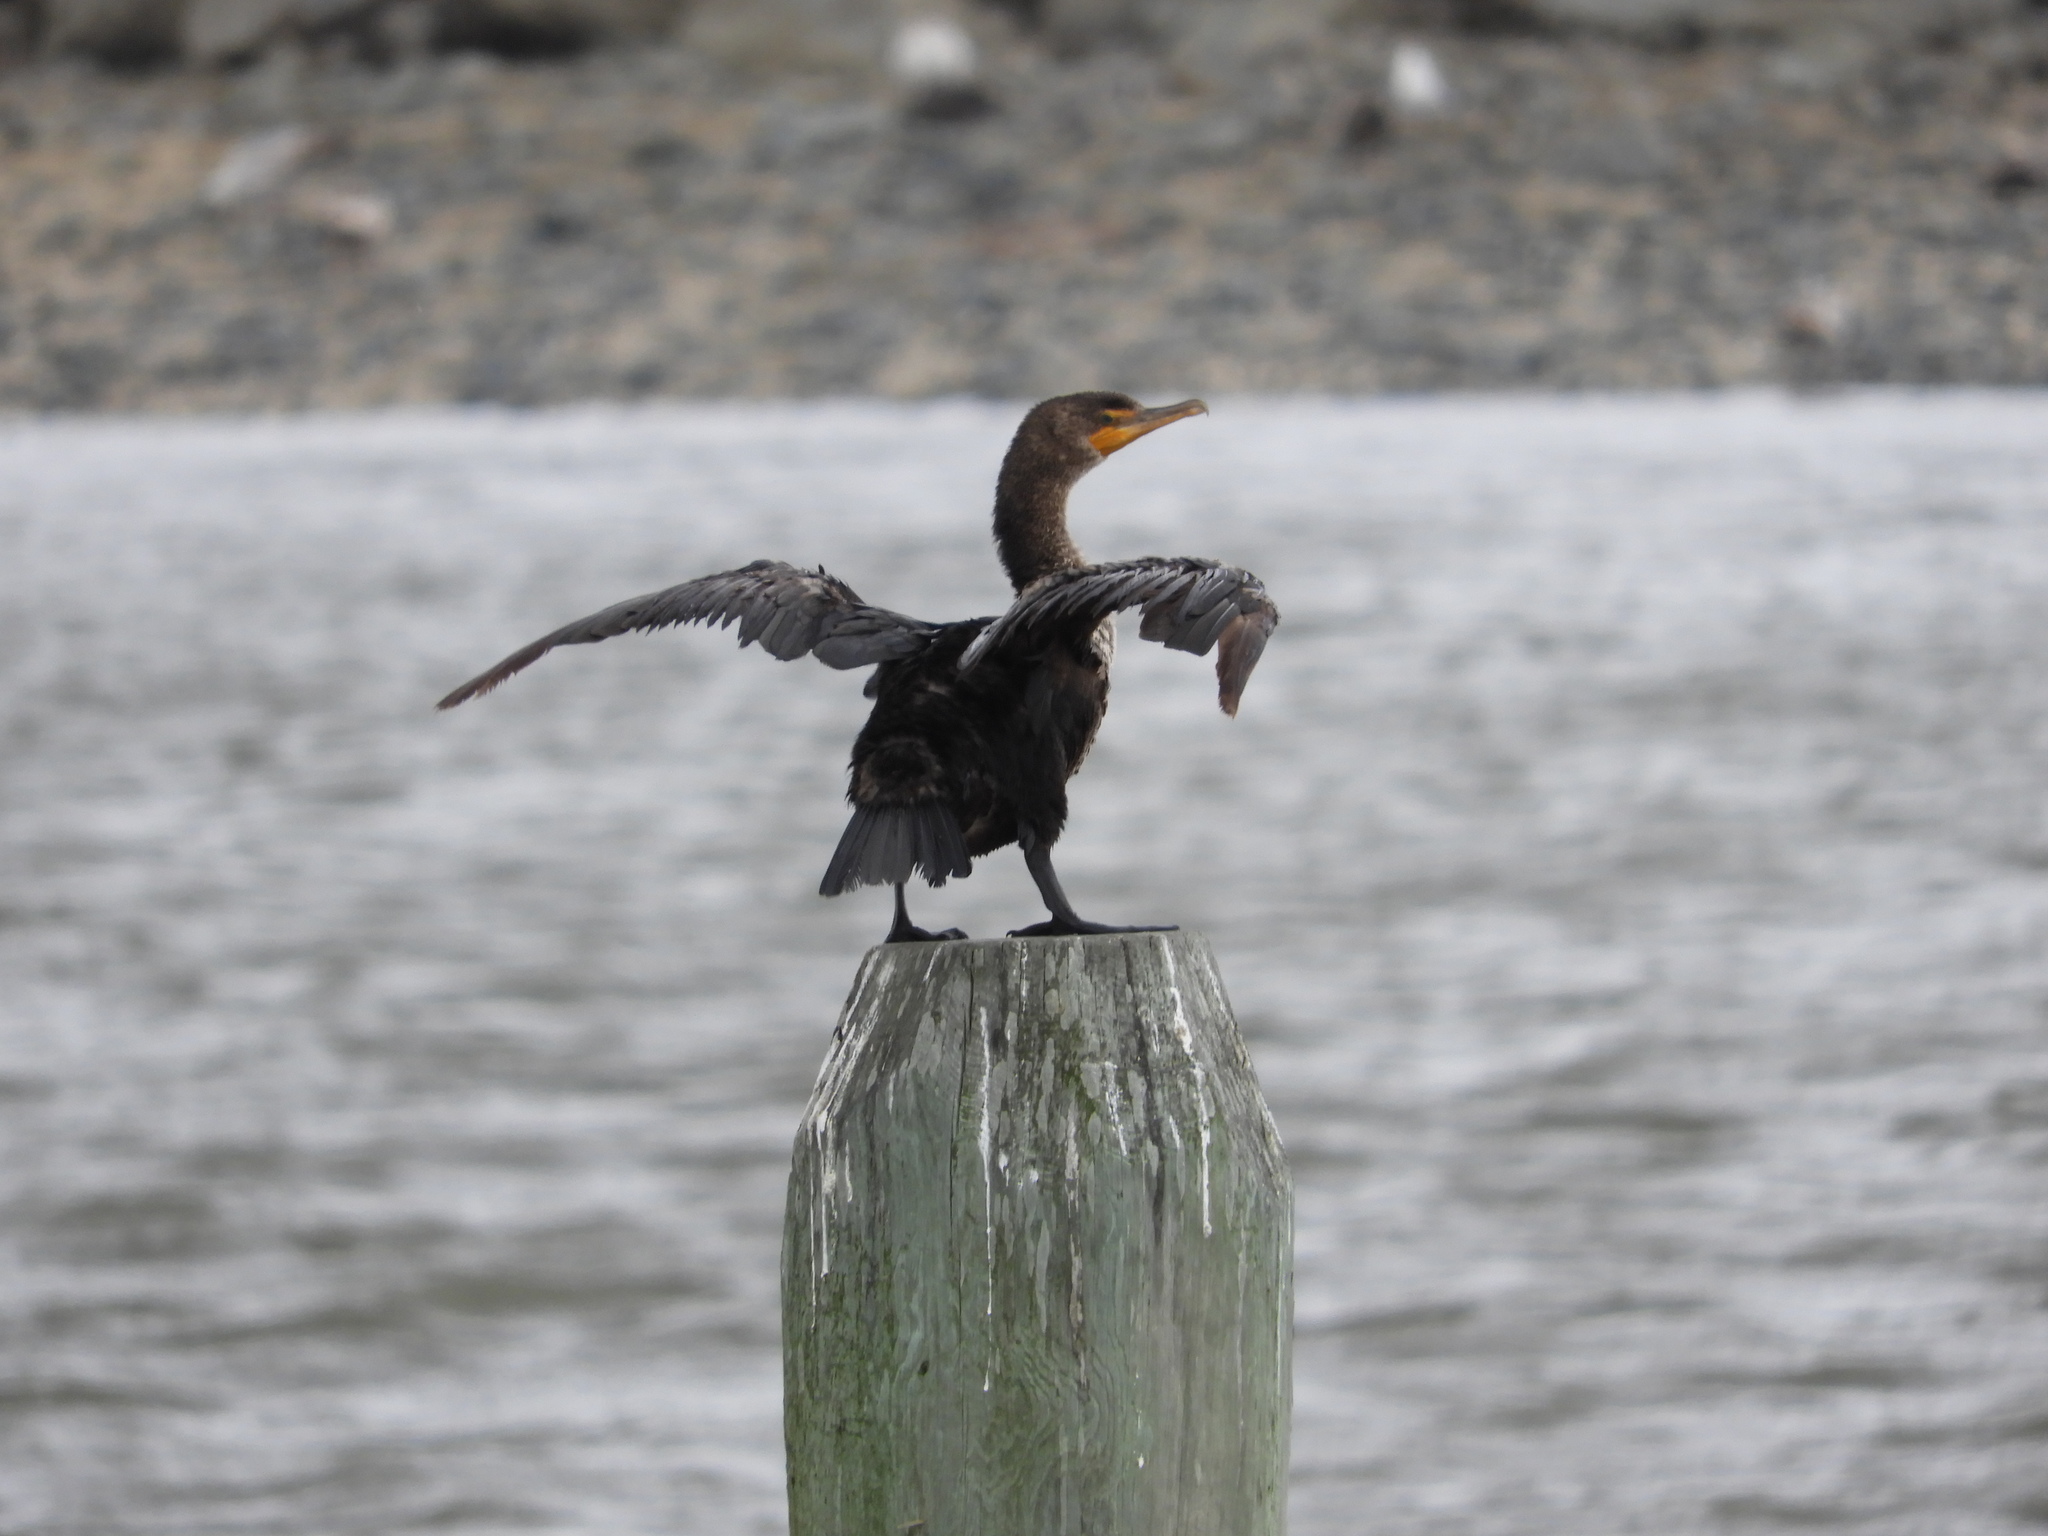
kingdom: Animalia
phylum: Chordata
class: Aves
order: Suliformes
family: Phalacrocoracidae
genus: Phalacrocorax
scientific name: Phalacrocorax auritus
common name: Double-crested cormorant
